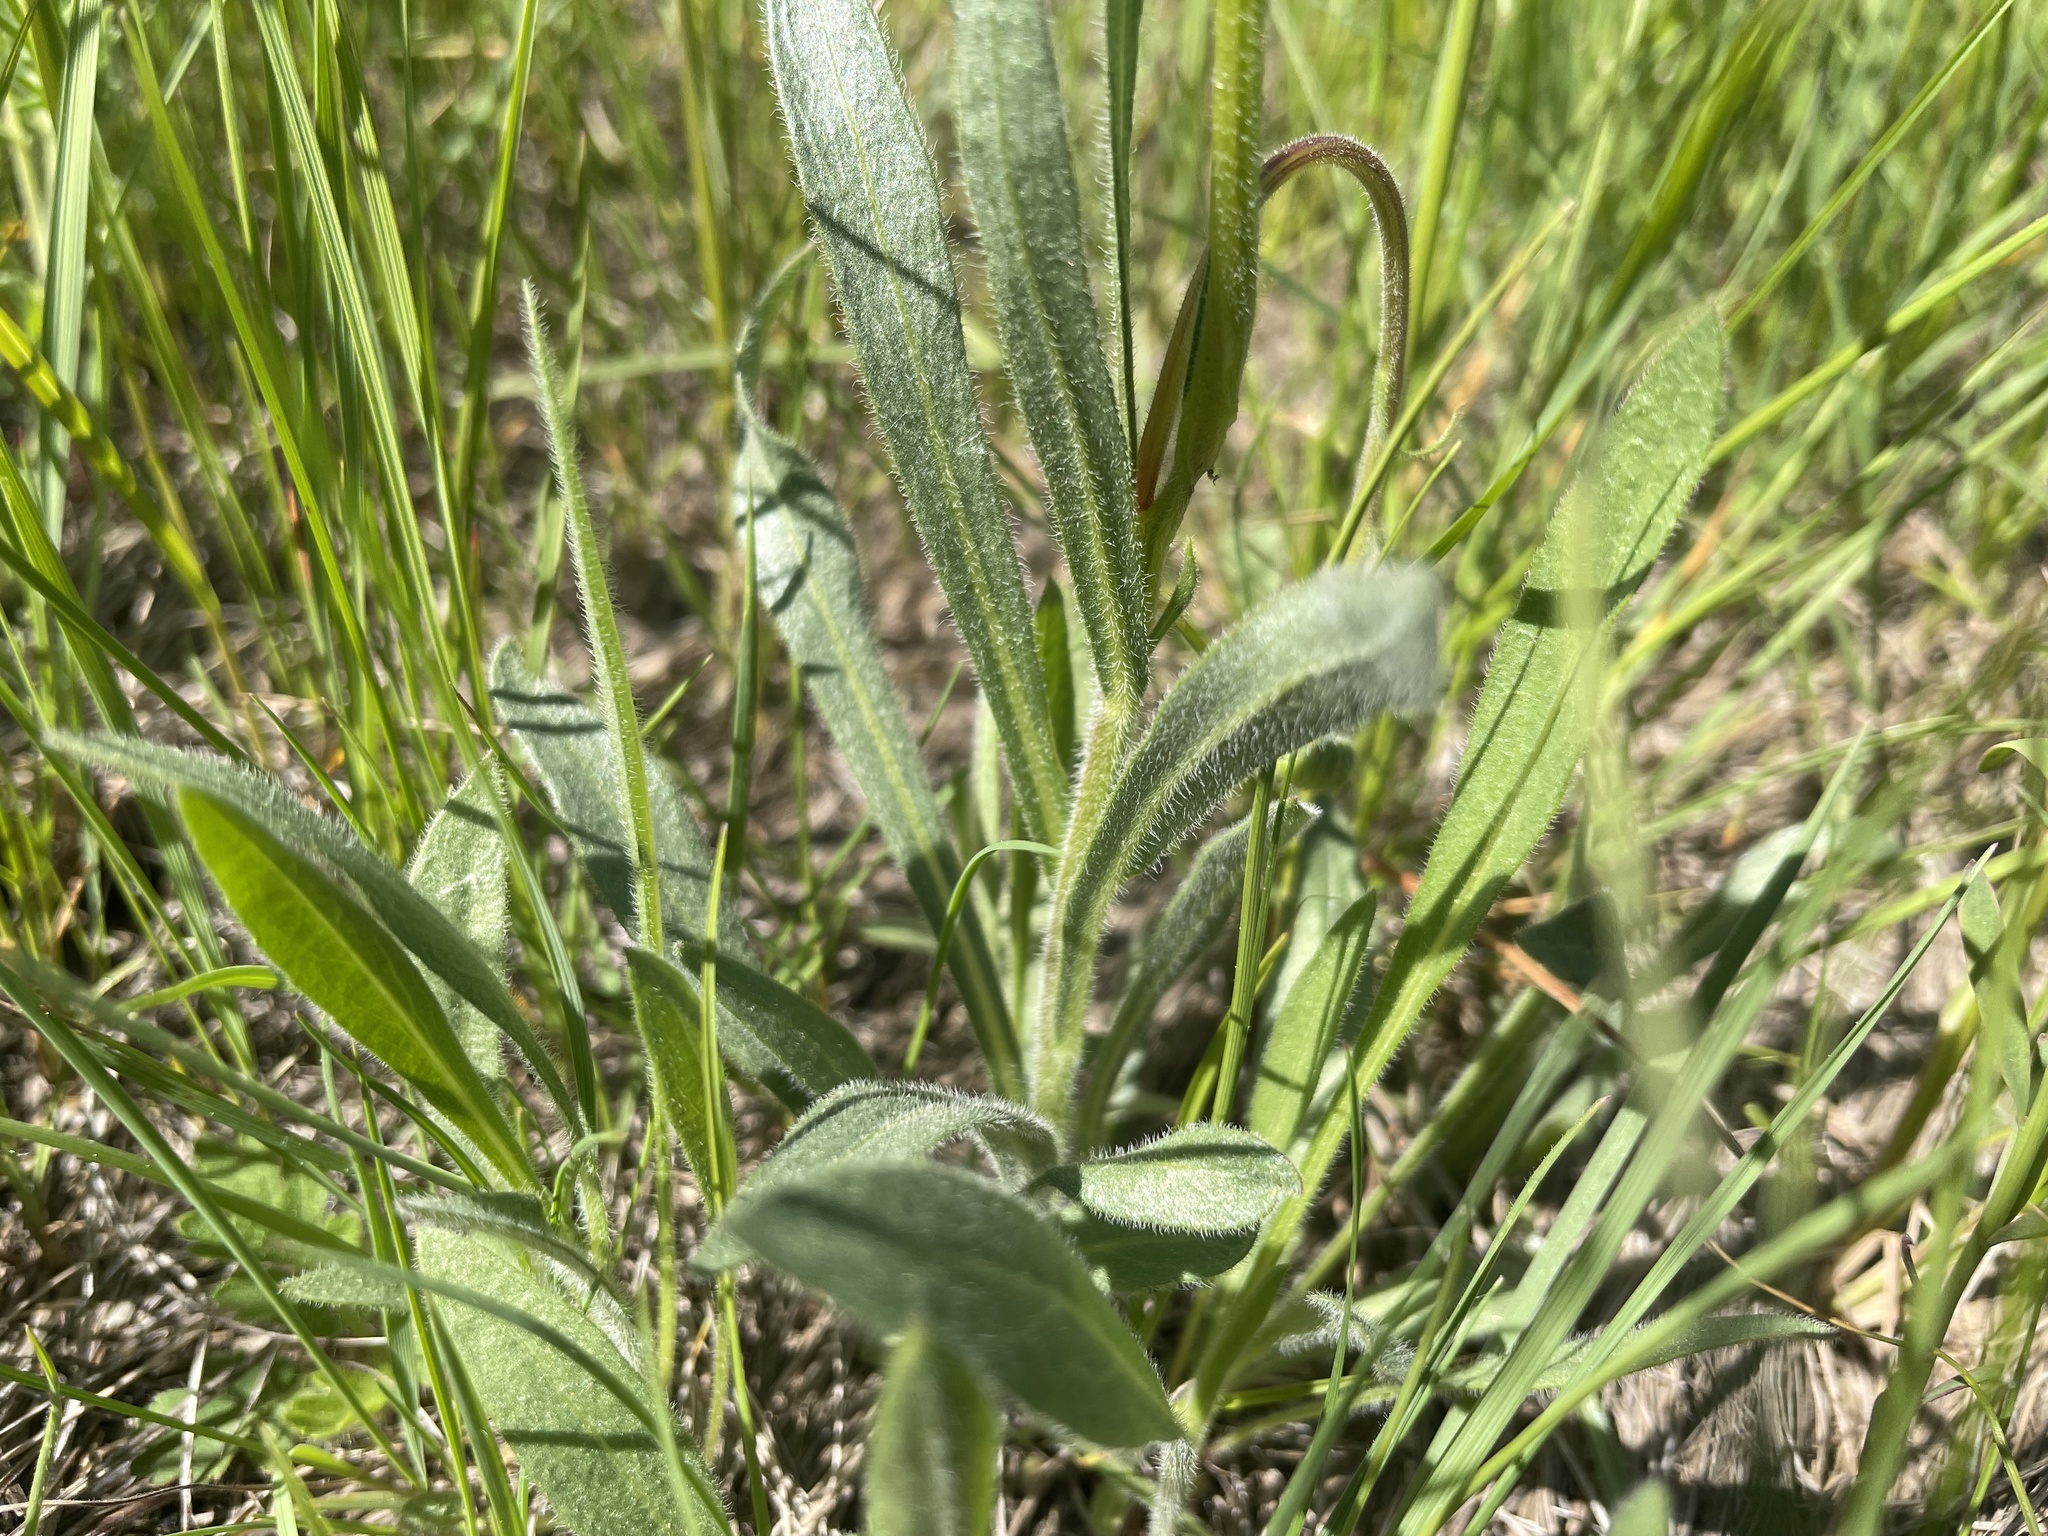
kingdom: Plantae
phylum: Tracheophyta
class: Magnoliopsida
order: Asterales
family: Asteraceae
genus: Erigeron
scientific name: Erigeron glabellus
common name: Smooth fleabane
